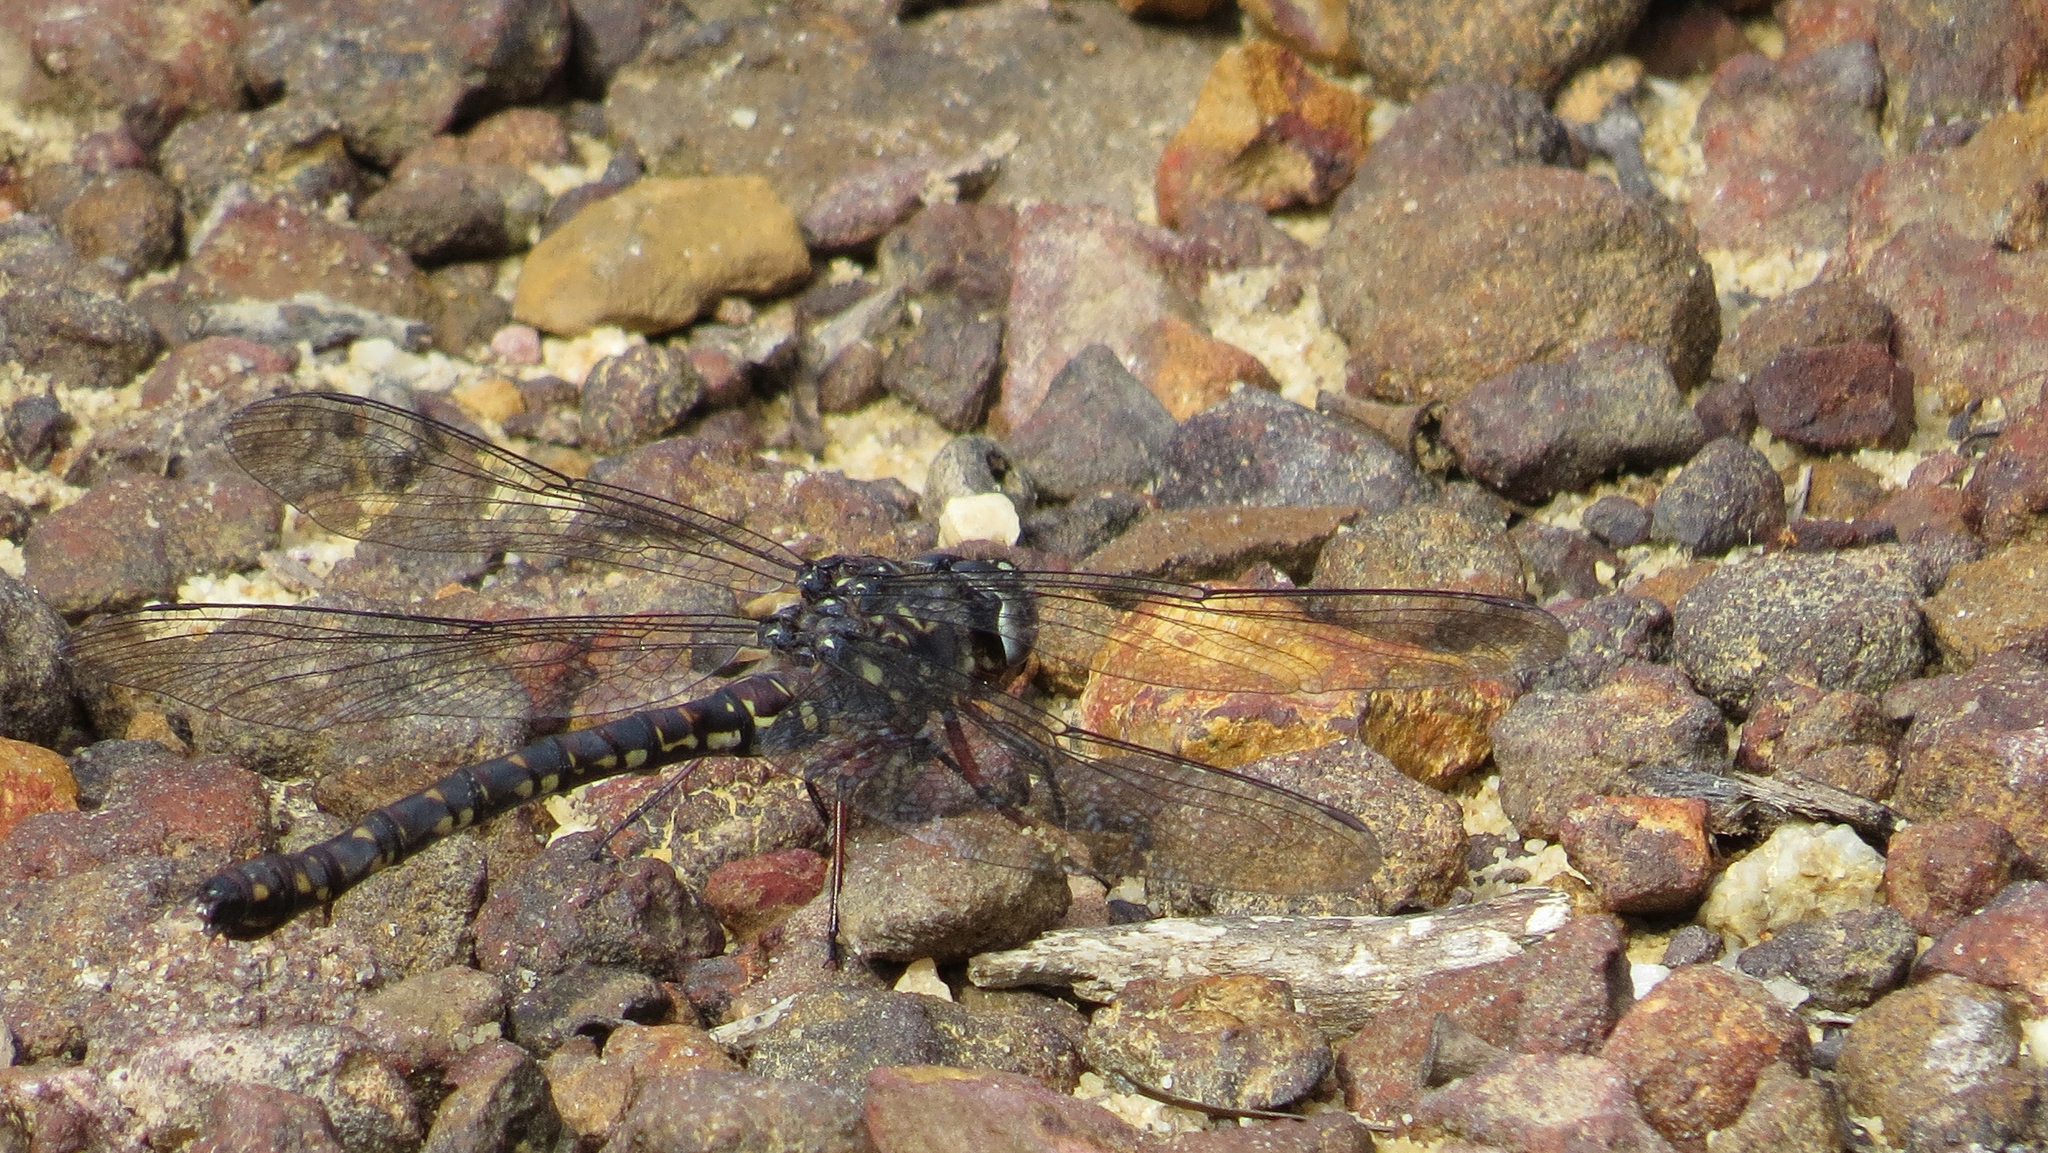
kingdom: Animalia
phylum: Arthropoda
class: Insecta
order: Odonata
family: Aeshnidae
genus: Austroaeschna
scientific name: Austroaeschna obscura
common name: Sydney mountain darner
